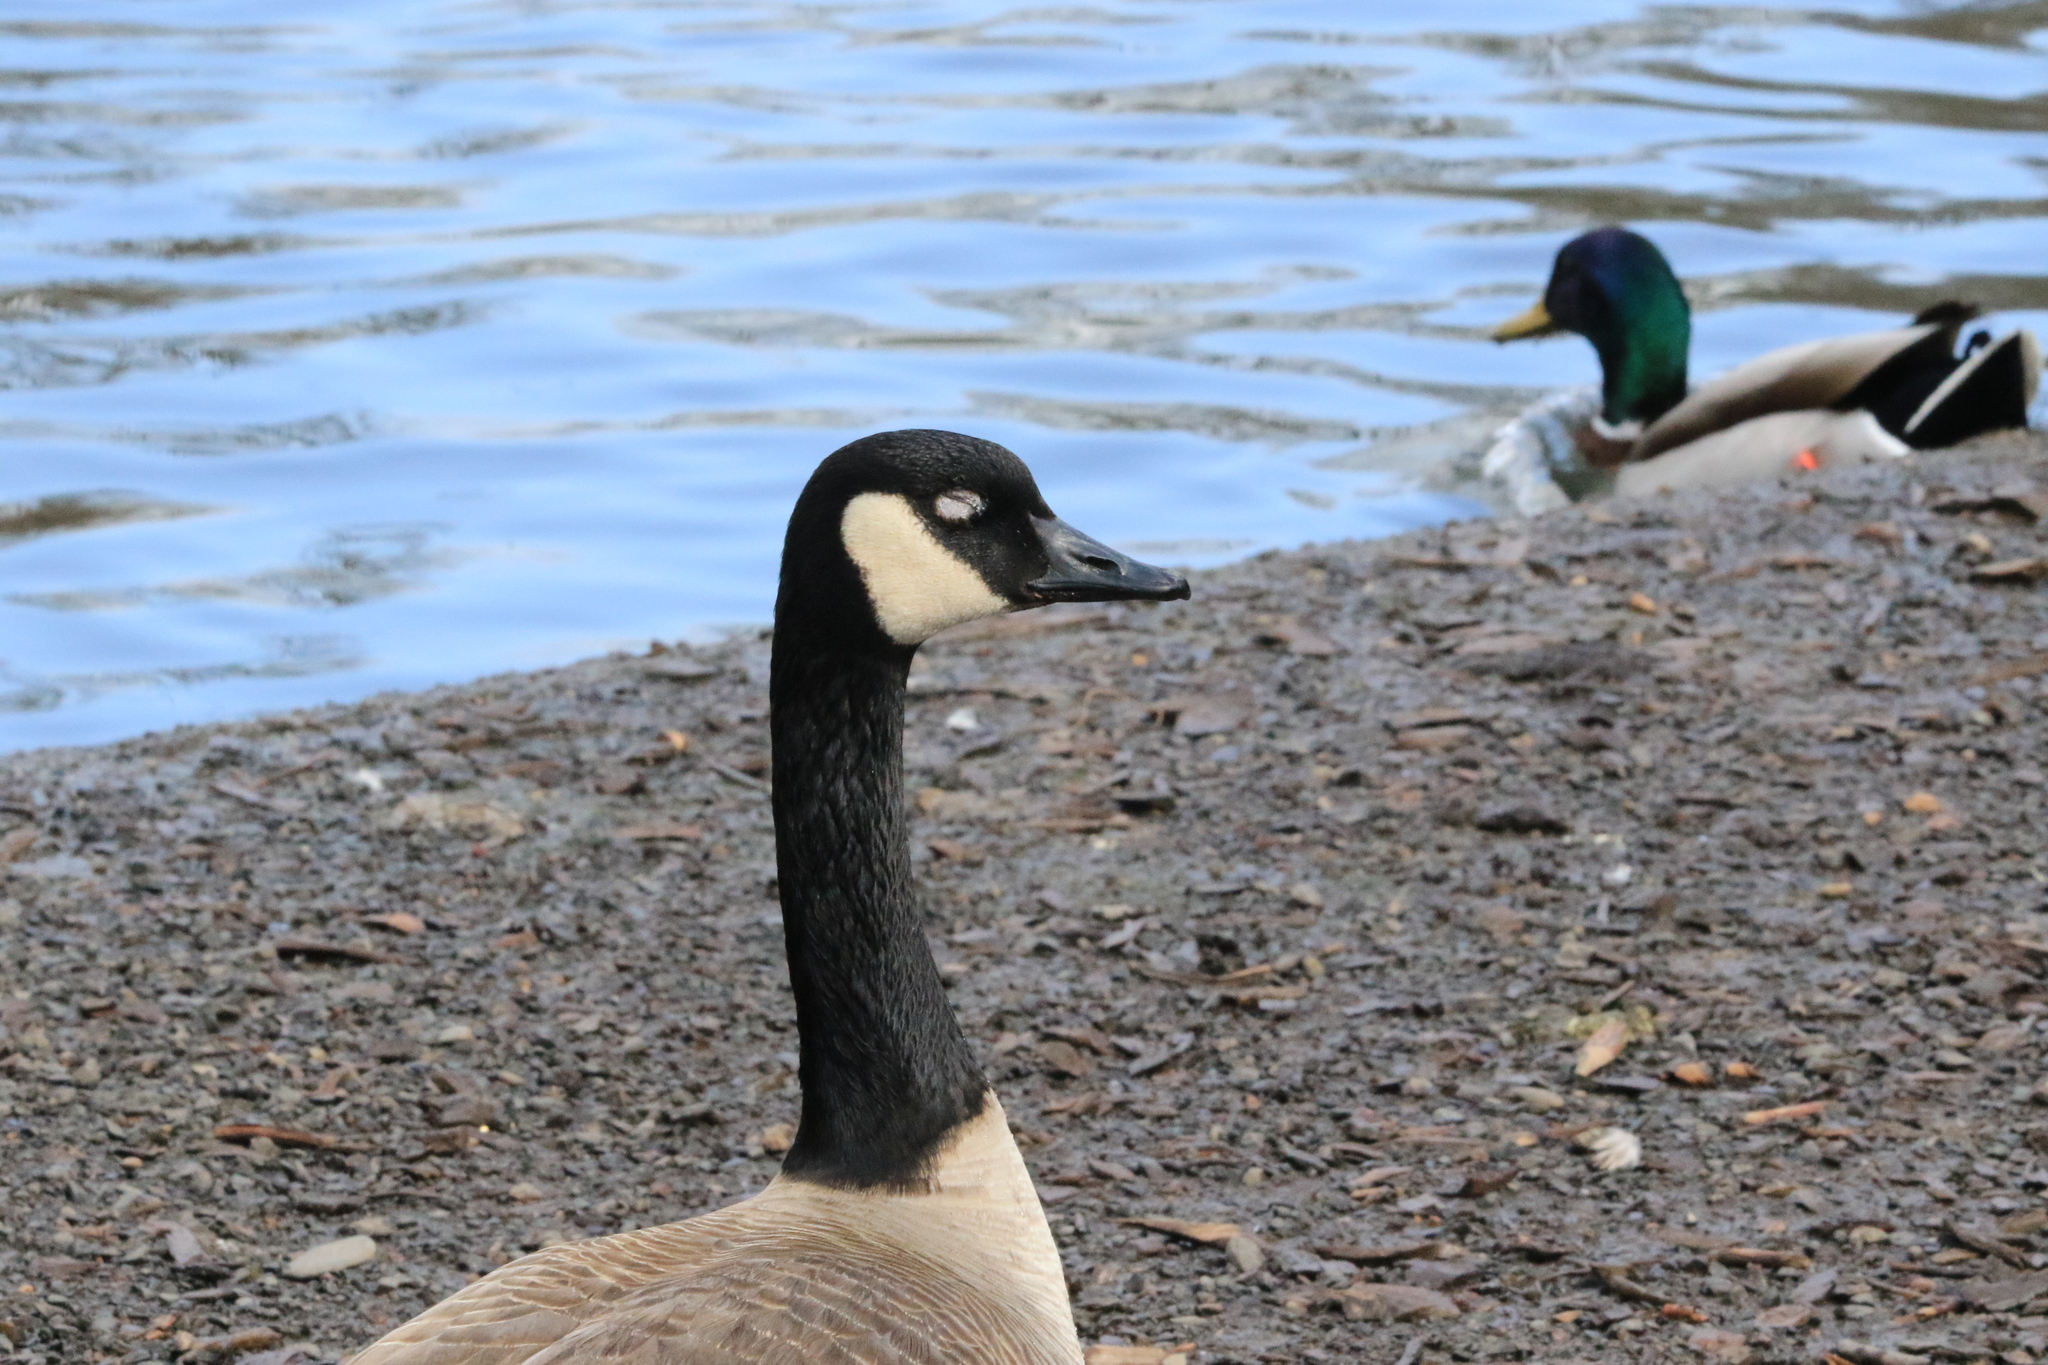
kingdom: Animalia
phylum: Chordata
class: Aves
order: Anseriformes
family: Anatidae
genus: Branta
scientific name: Branta canadensis
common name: Canada goose
